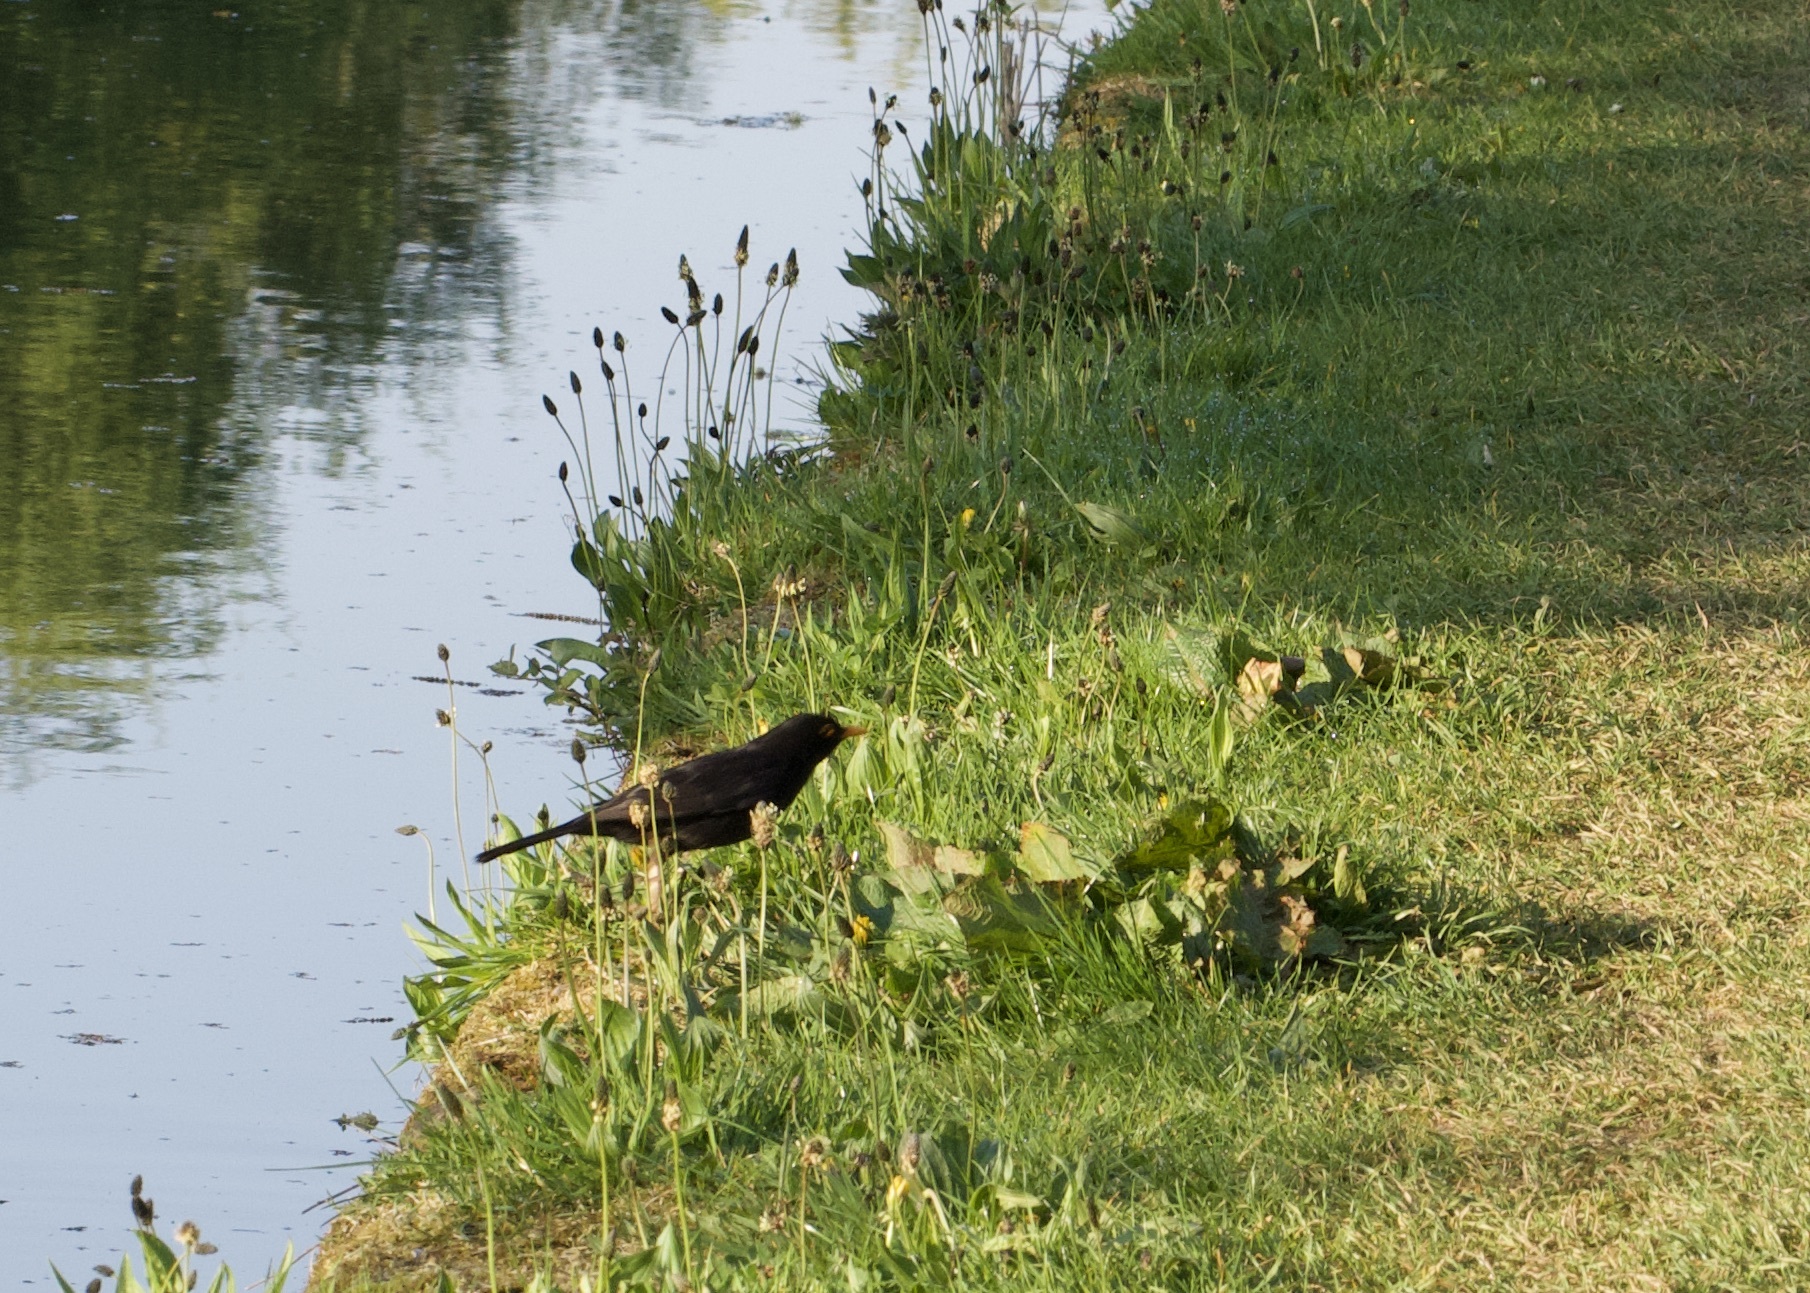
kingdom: Animalia
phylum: Chordata
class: Aves
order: Passeriformes
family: Turdidae
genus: Turdus
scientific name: Turdus merula
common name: Common blackbird
